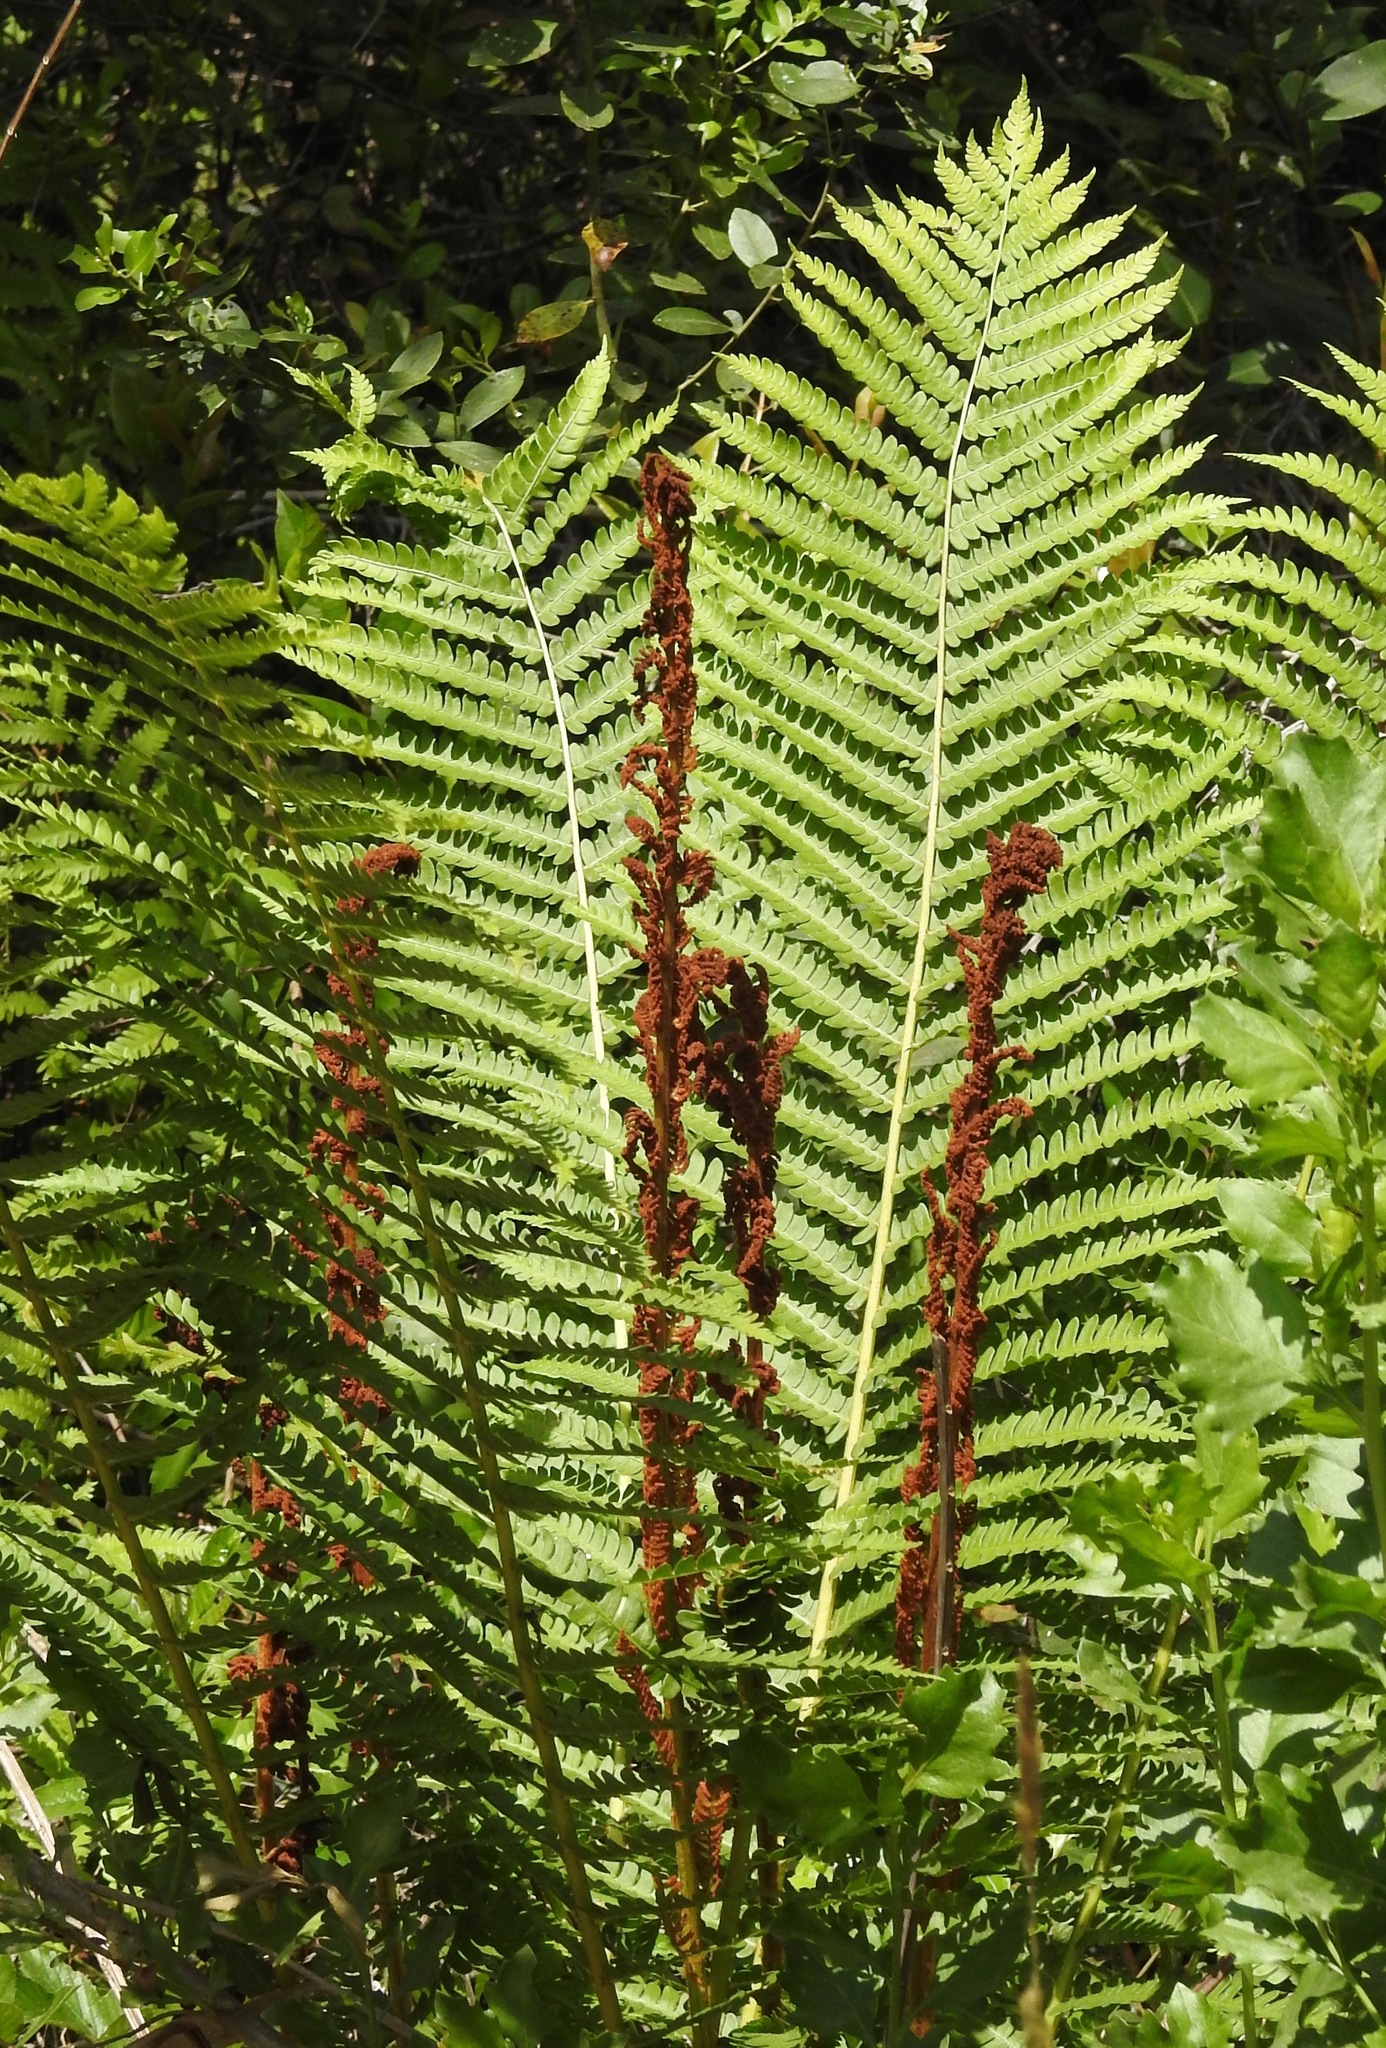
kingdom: Plantae
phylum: Tracheophyta
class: Polypodiopsida
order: Osmundales
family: Osmundaceae
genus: Osmundastrum
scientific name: Osmundastrum cinnamomeum
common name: Cinnamon fern
